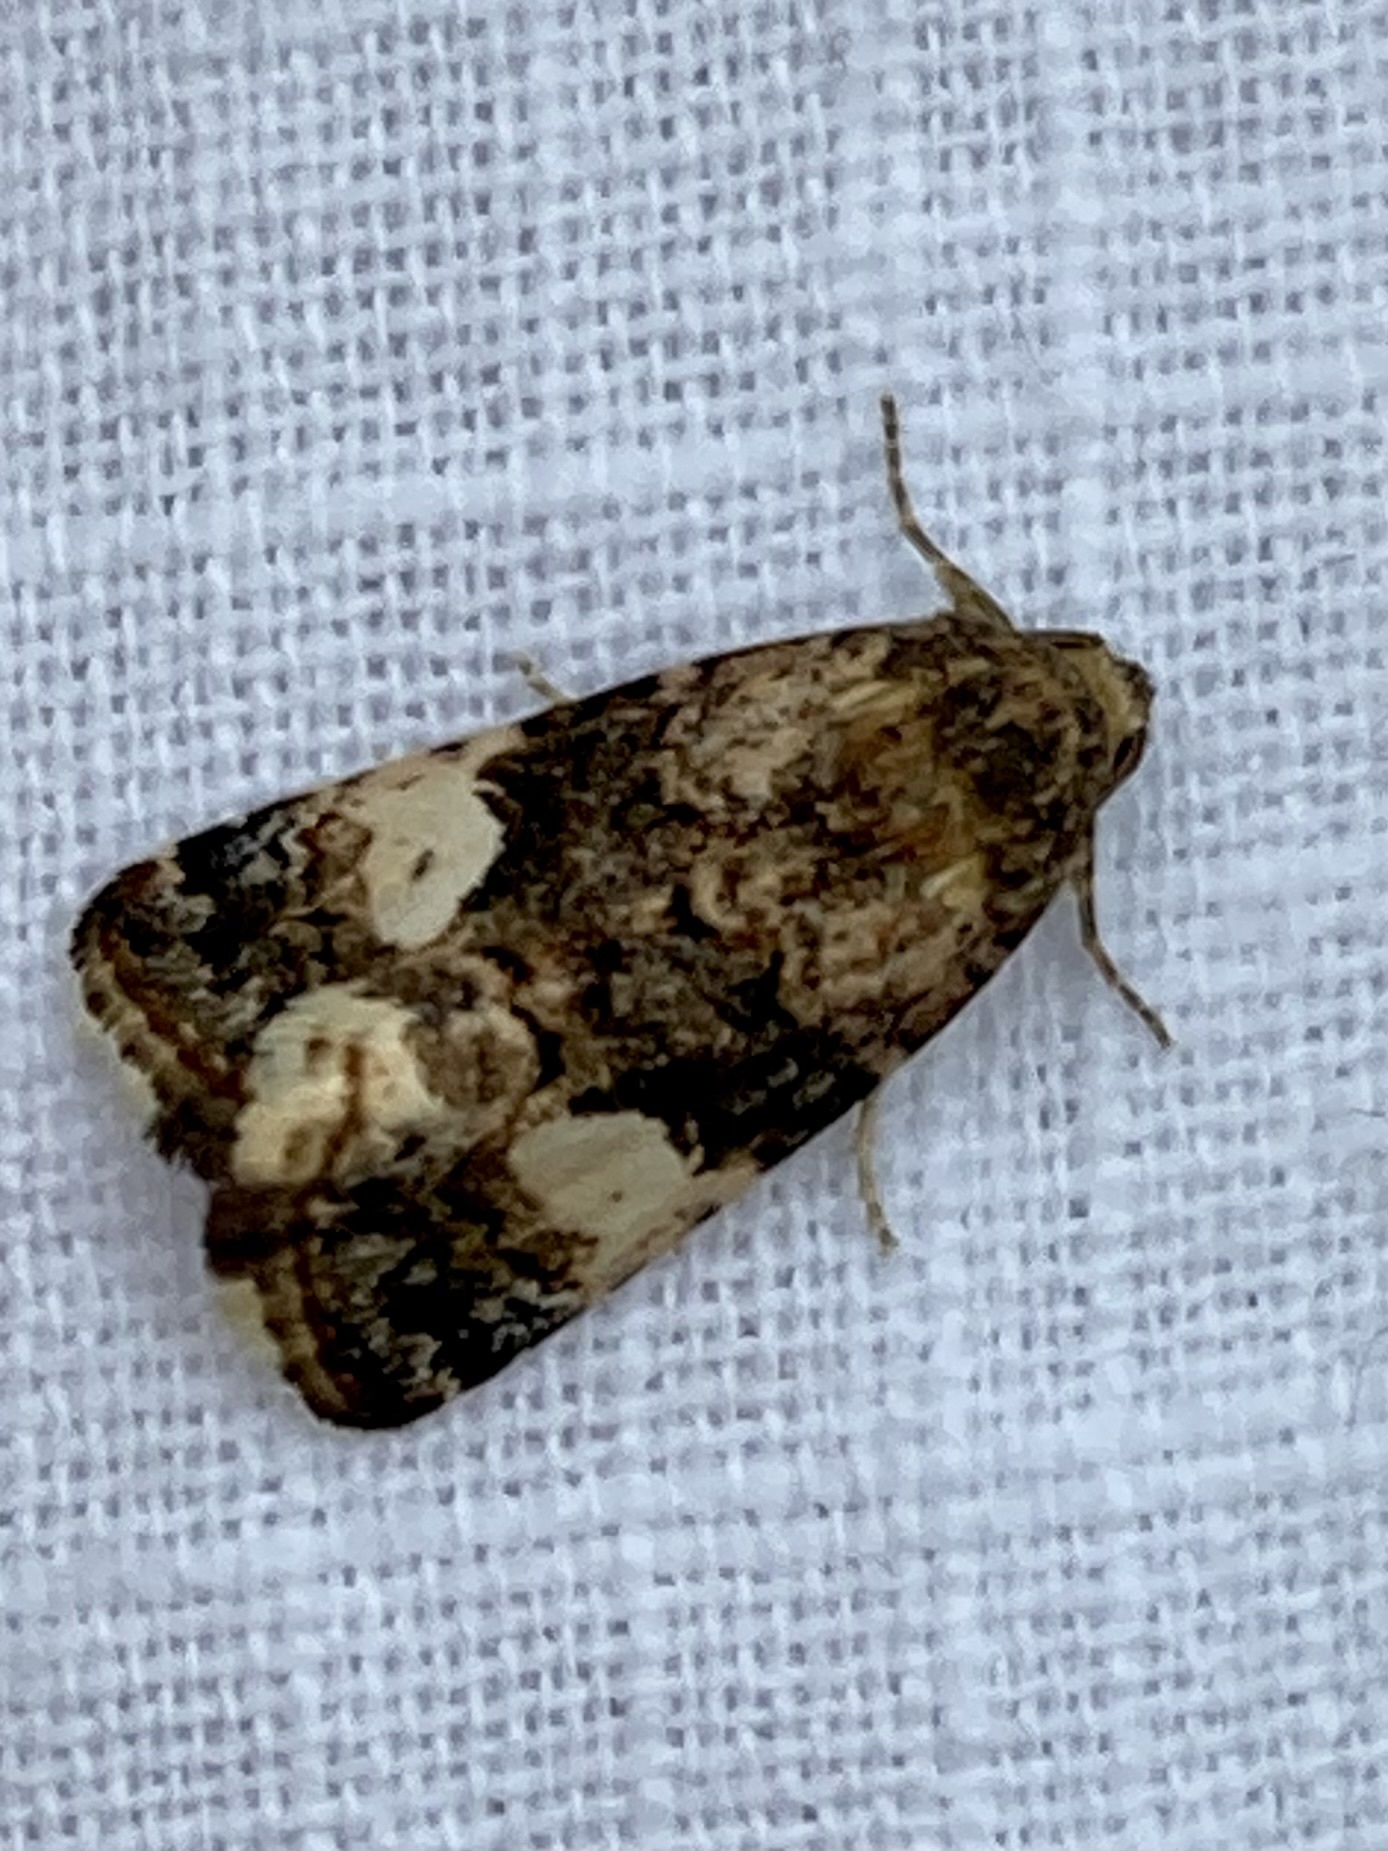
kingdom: Animalia
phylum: Arthropoda
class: Insecta
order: Lepidoptera
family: Erebidae
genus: Tyta
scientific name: Tyta luctuosa
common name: Four-spotted
